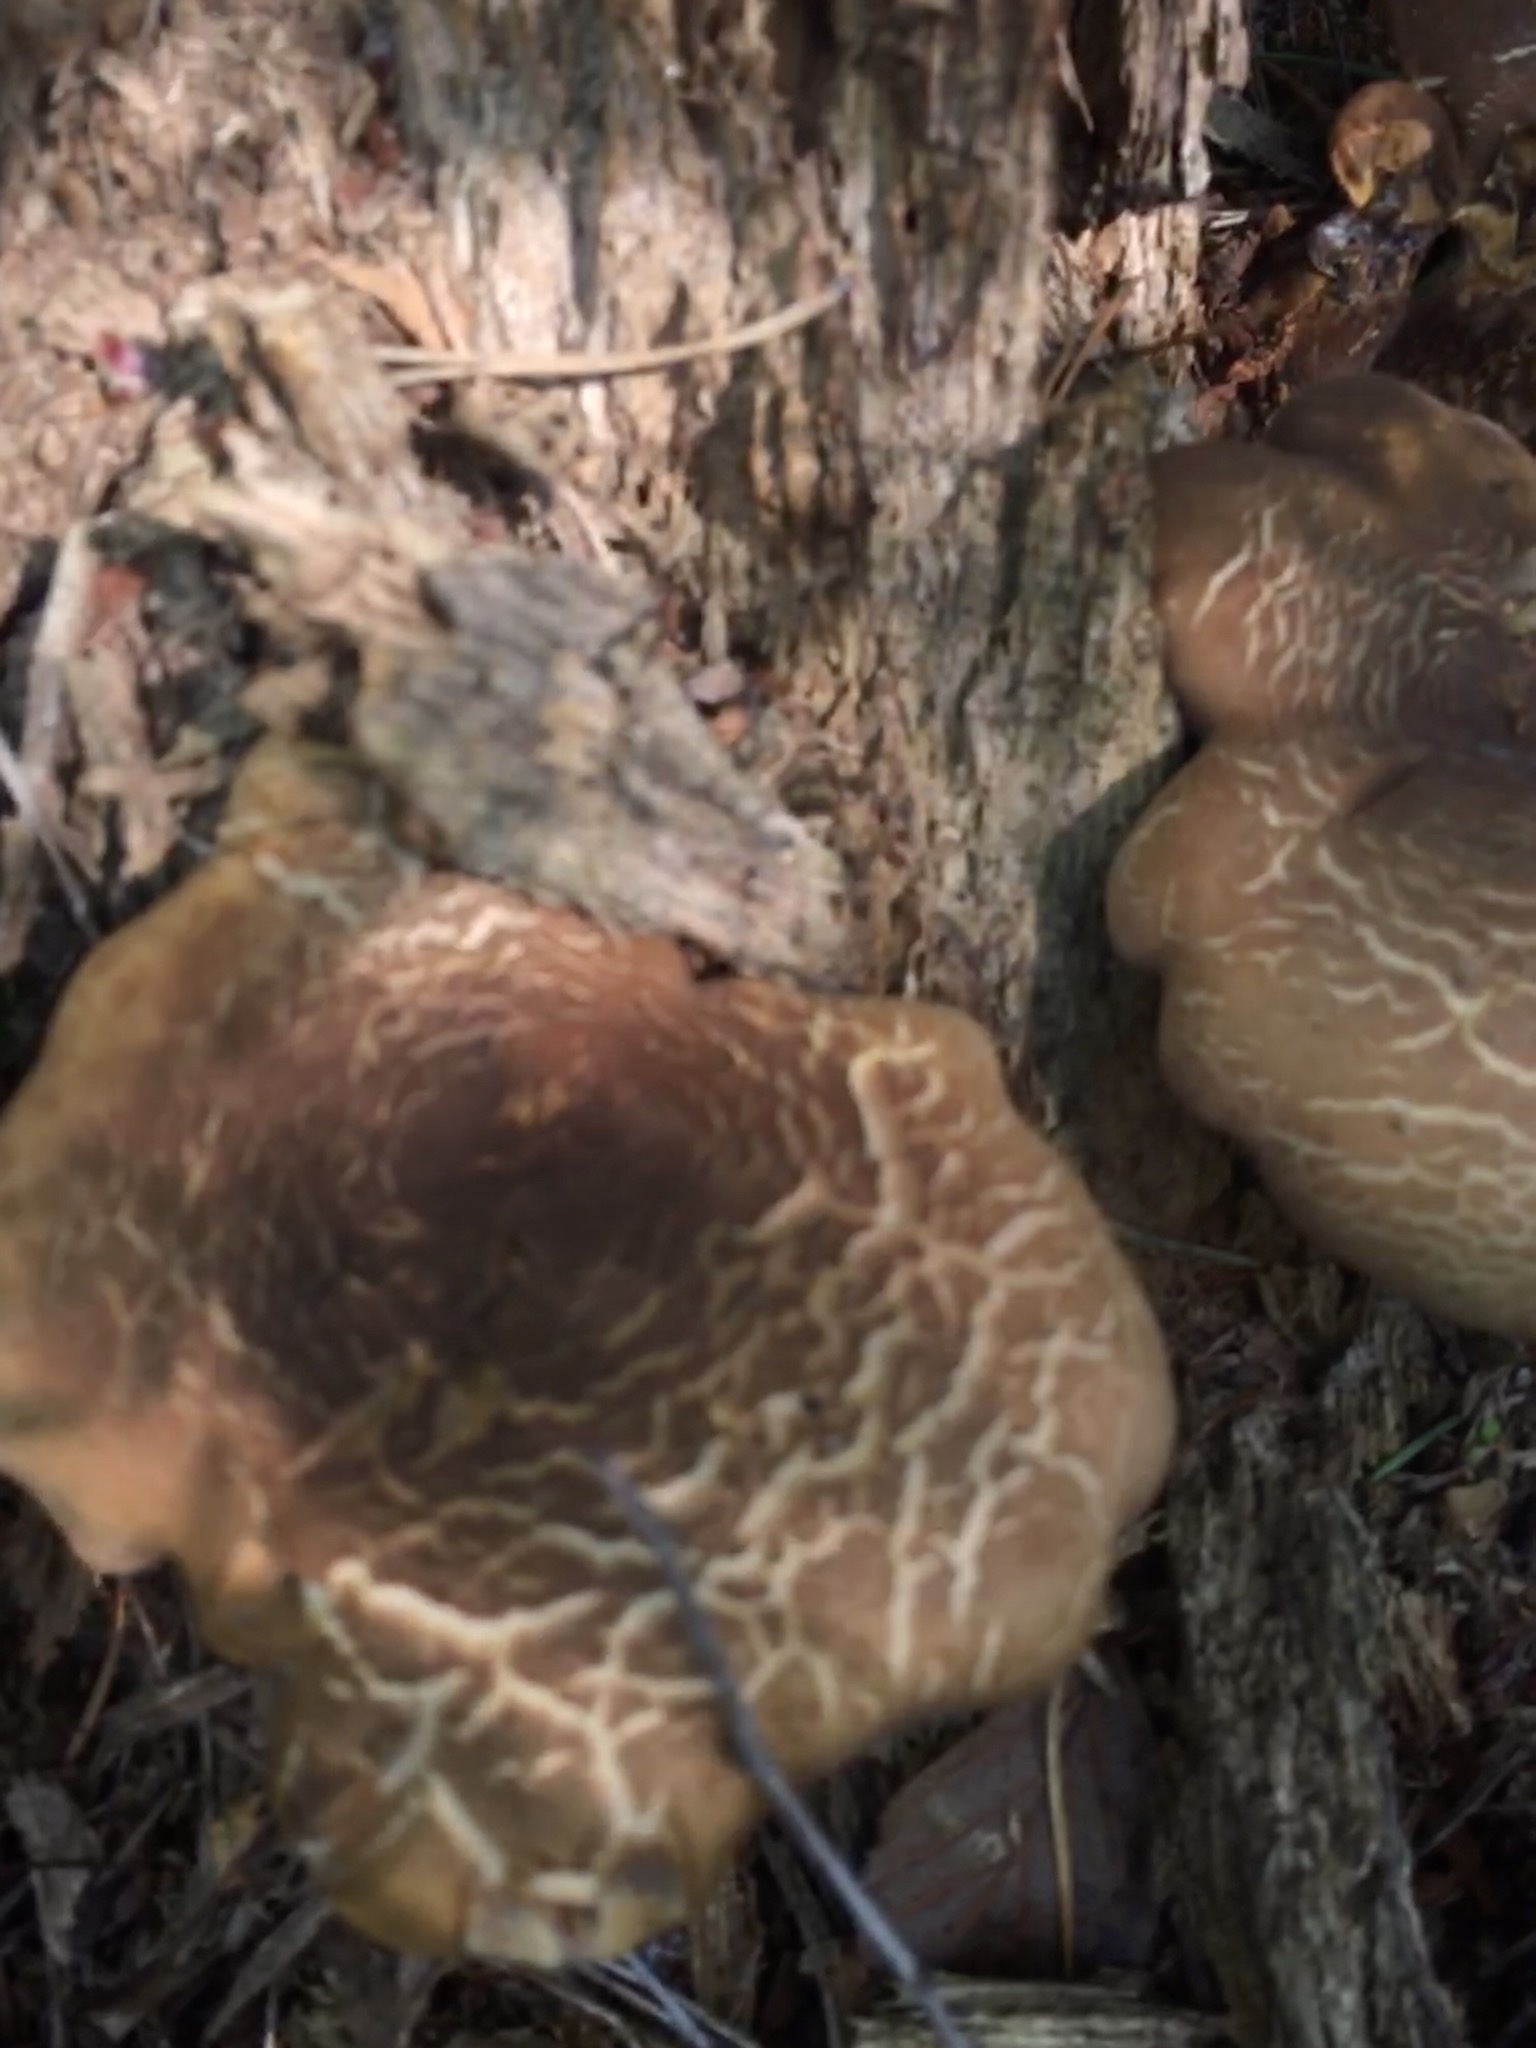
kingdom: Fungi
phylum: Basidiomycota
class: Agaricomycetes
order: Boletales
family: Tapinellaceae
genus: Tapinella
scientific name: Tapinella atrotomentosa
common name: Velvet rollrim
